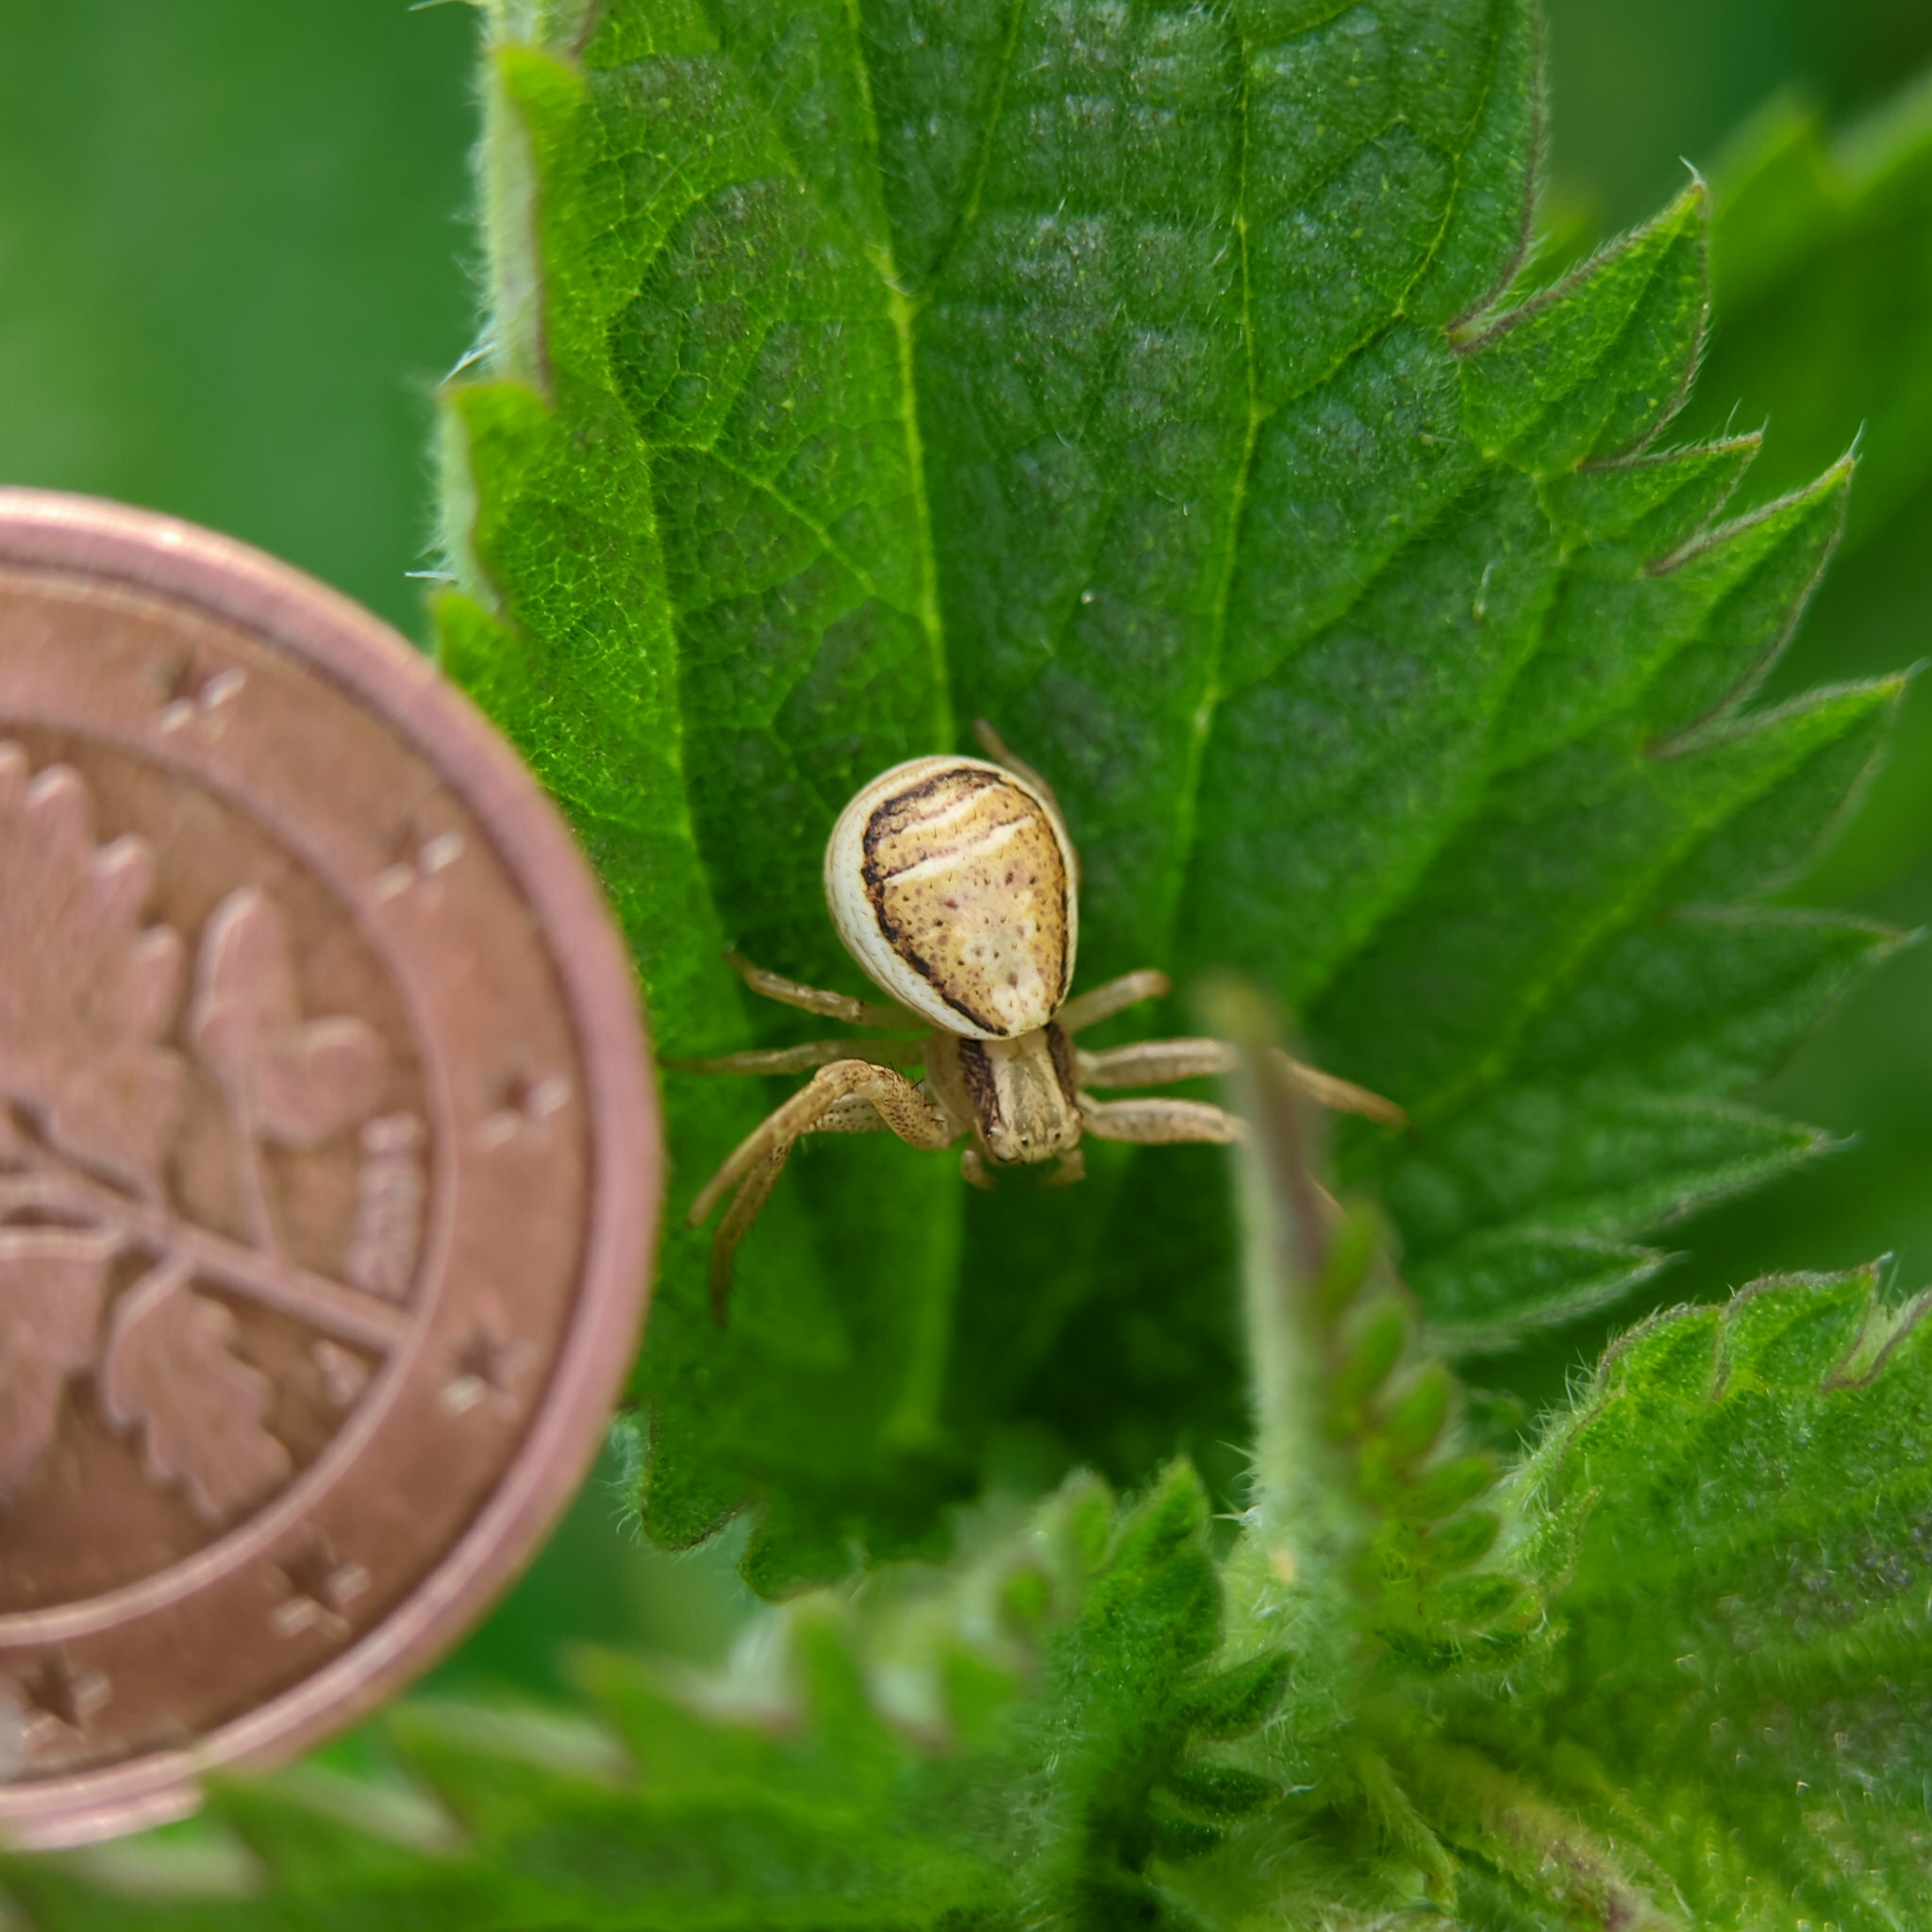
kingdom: Animalia
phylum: Arthropoda
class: Arachnida
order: Araneae
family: Thomisidae
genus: Xysticus
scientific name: Xysticus ulmi
